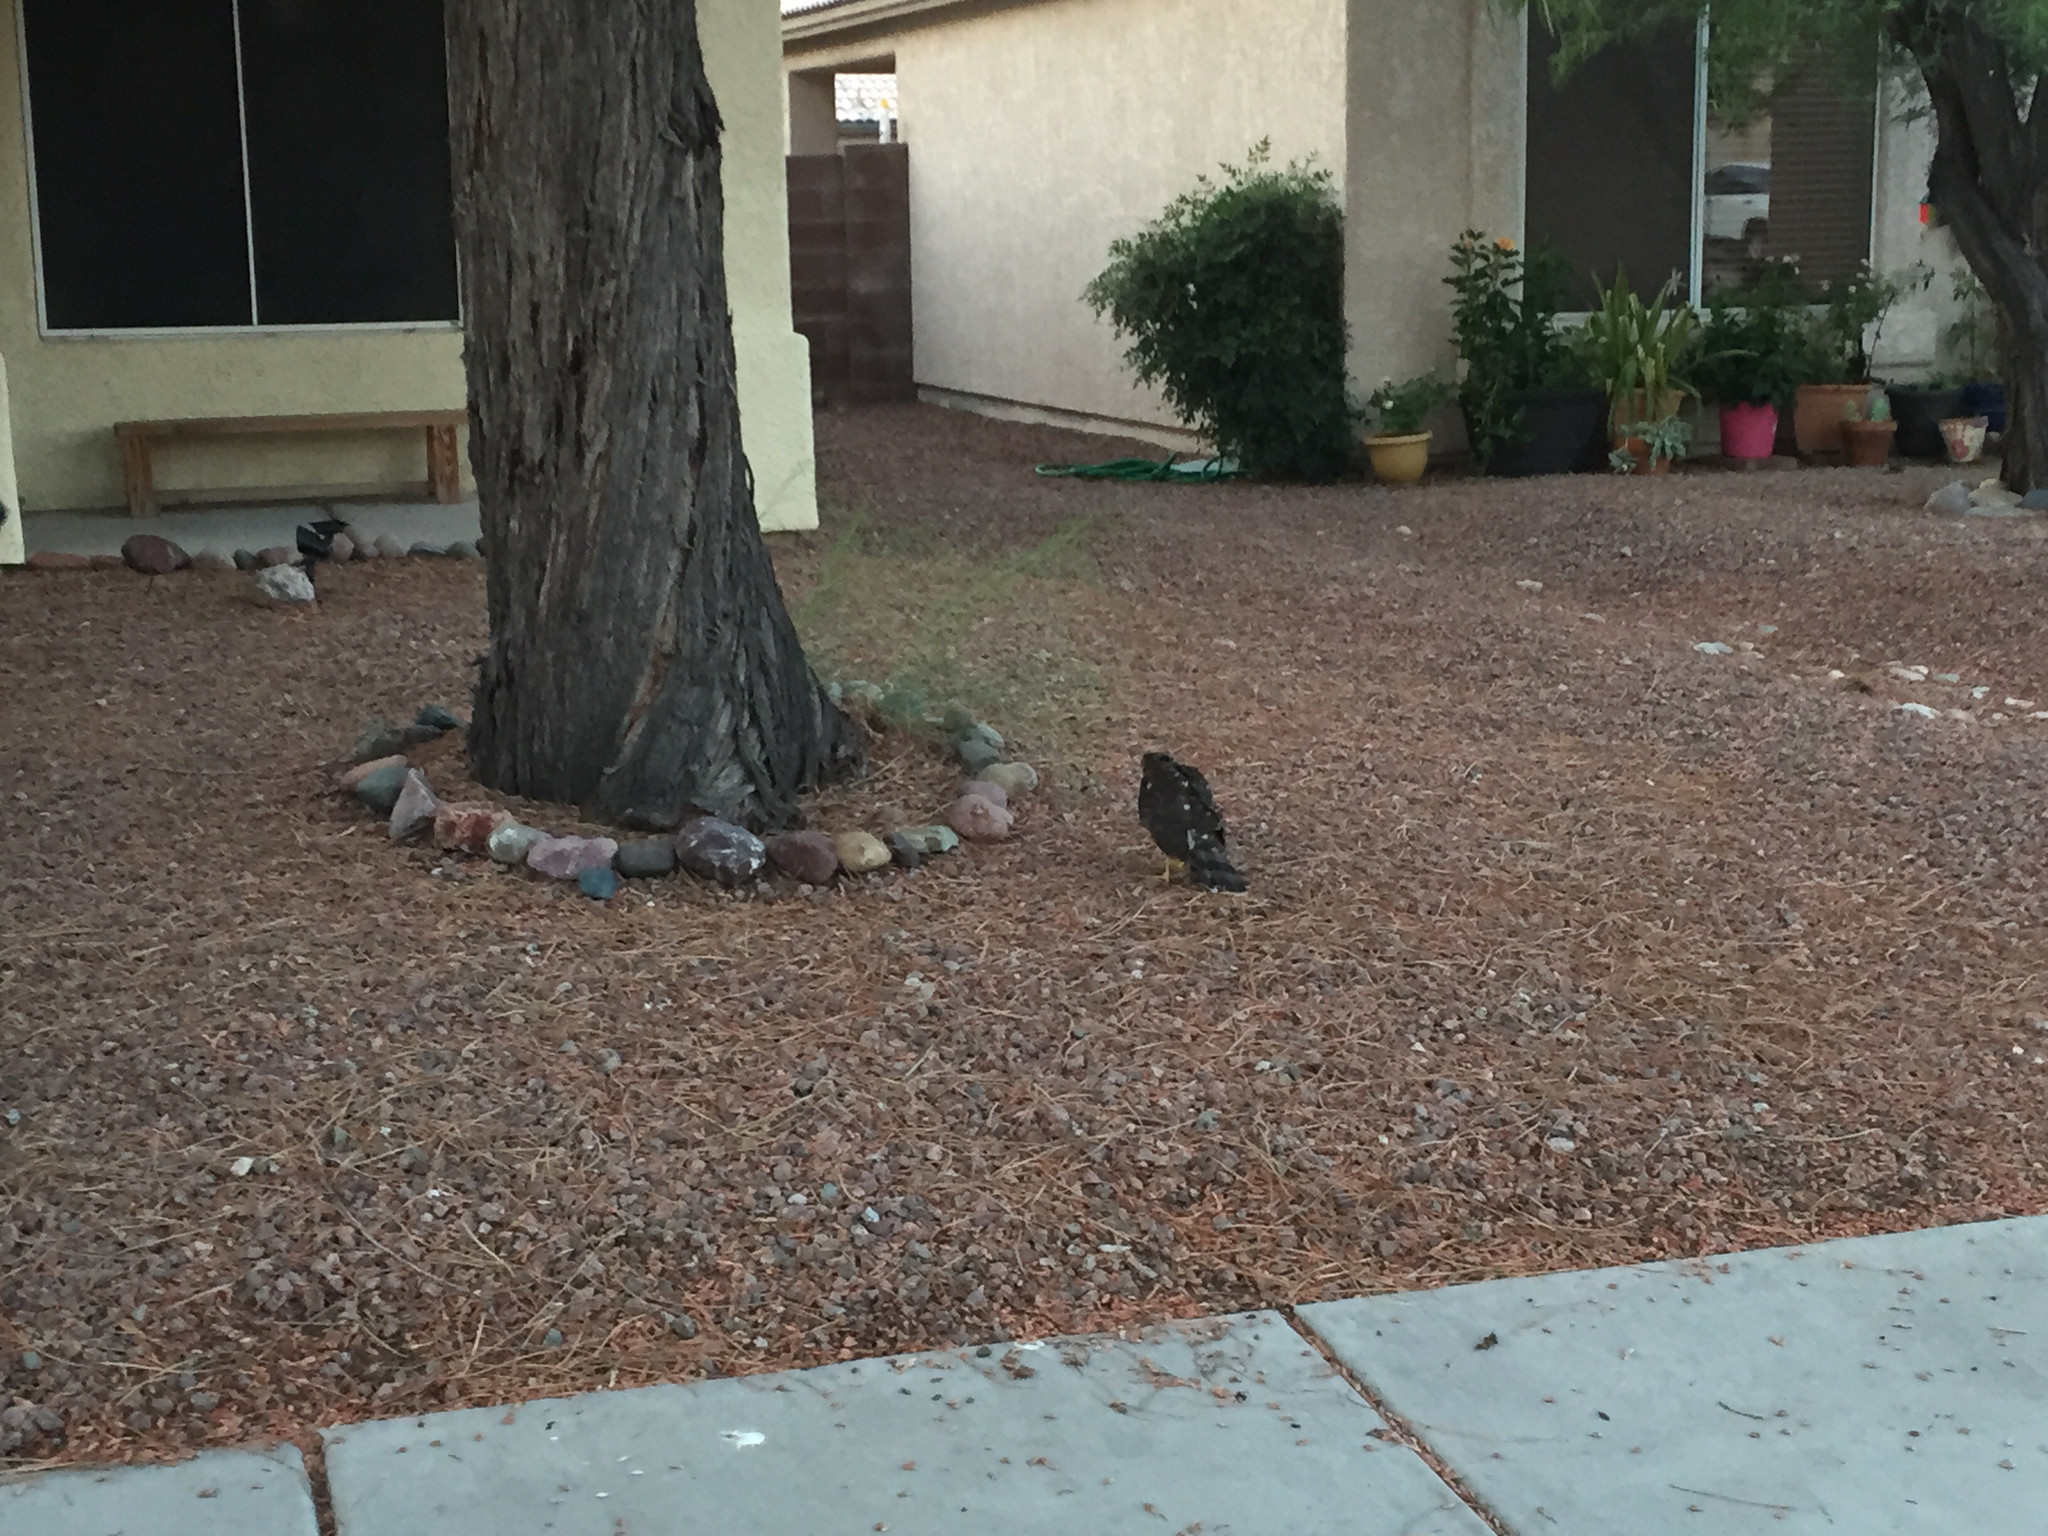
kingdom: Animalia
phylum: Chordata
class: Aves
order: Accipitriformes
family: Accipitridae
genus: Accipiter
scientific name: Accipiter cooperii
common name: Cooper's hawk
